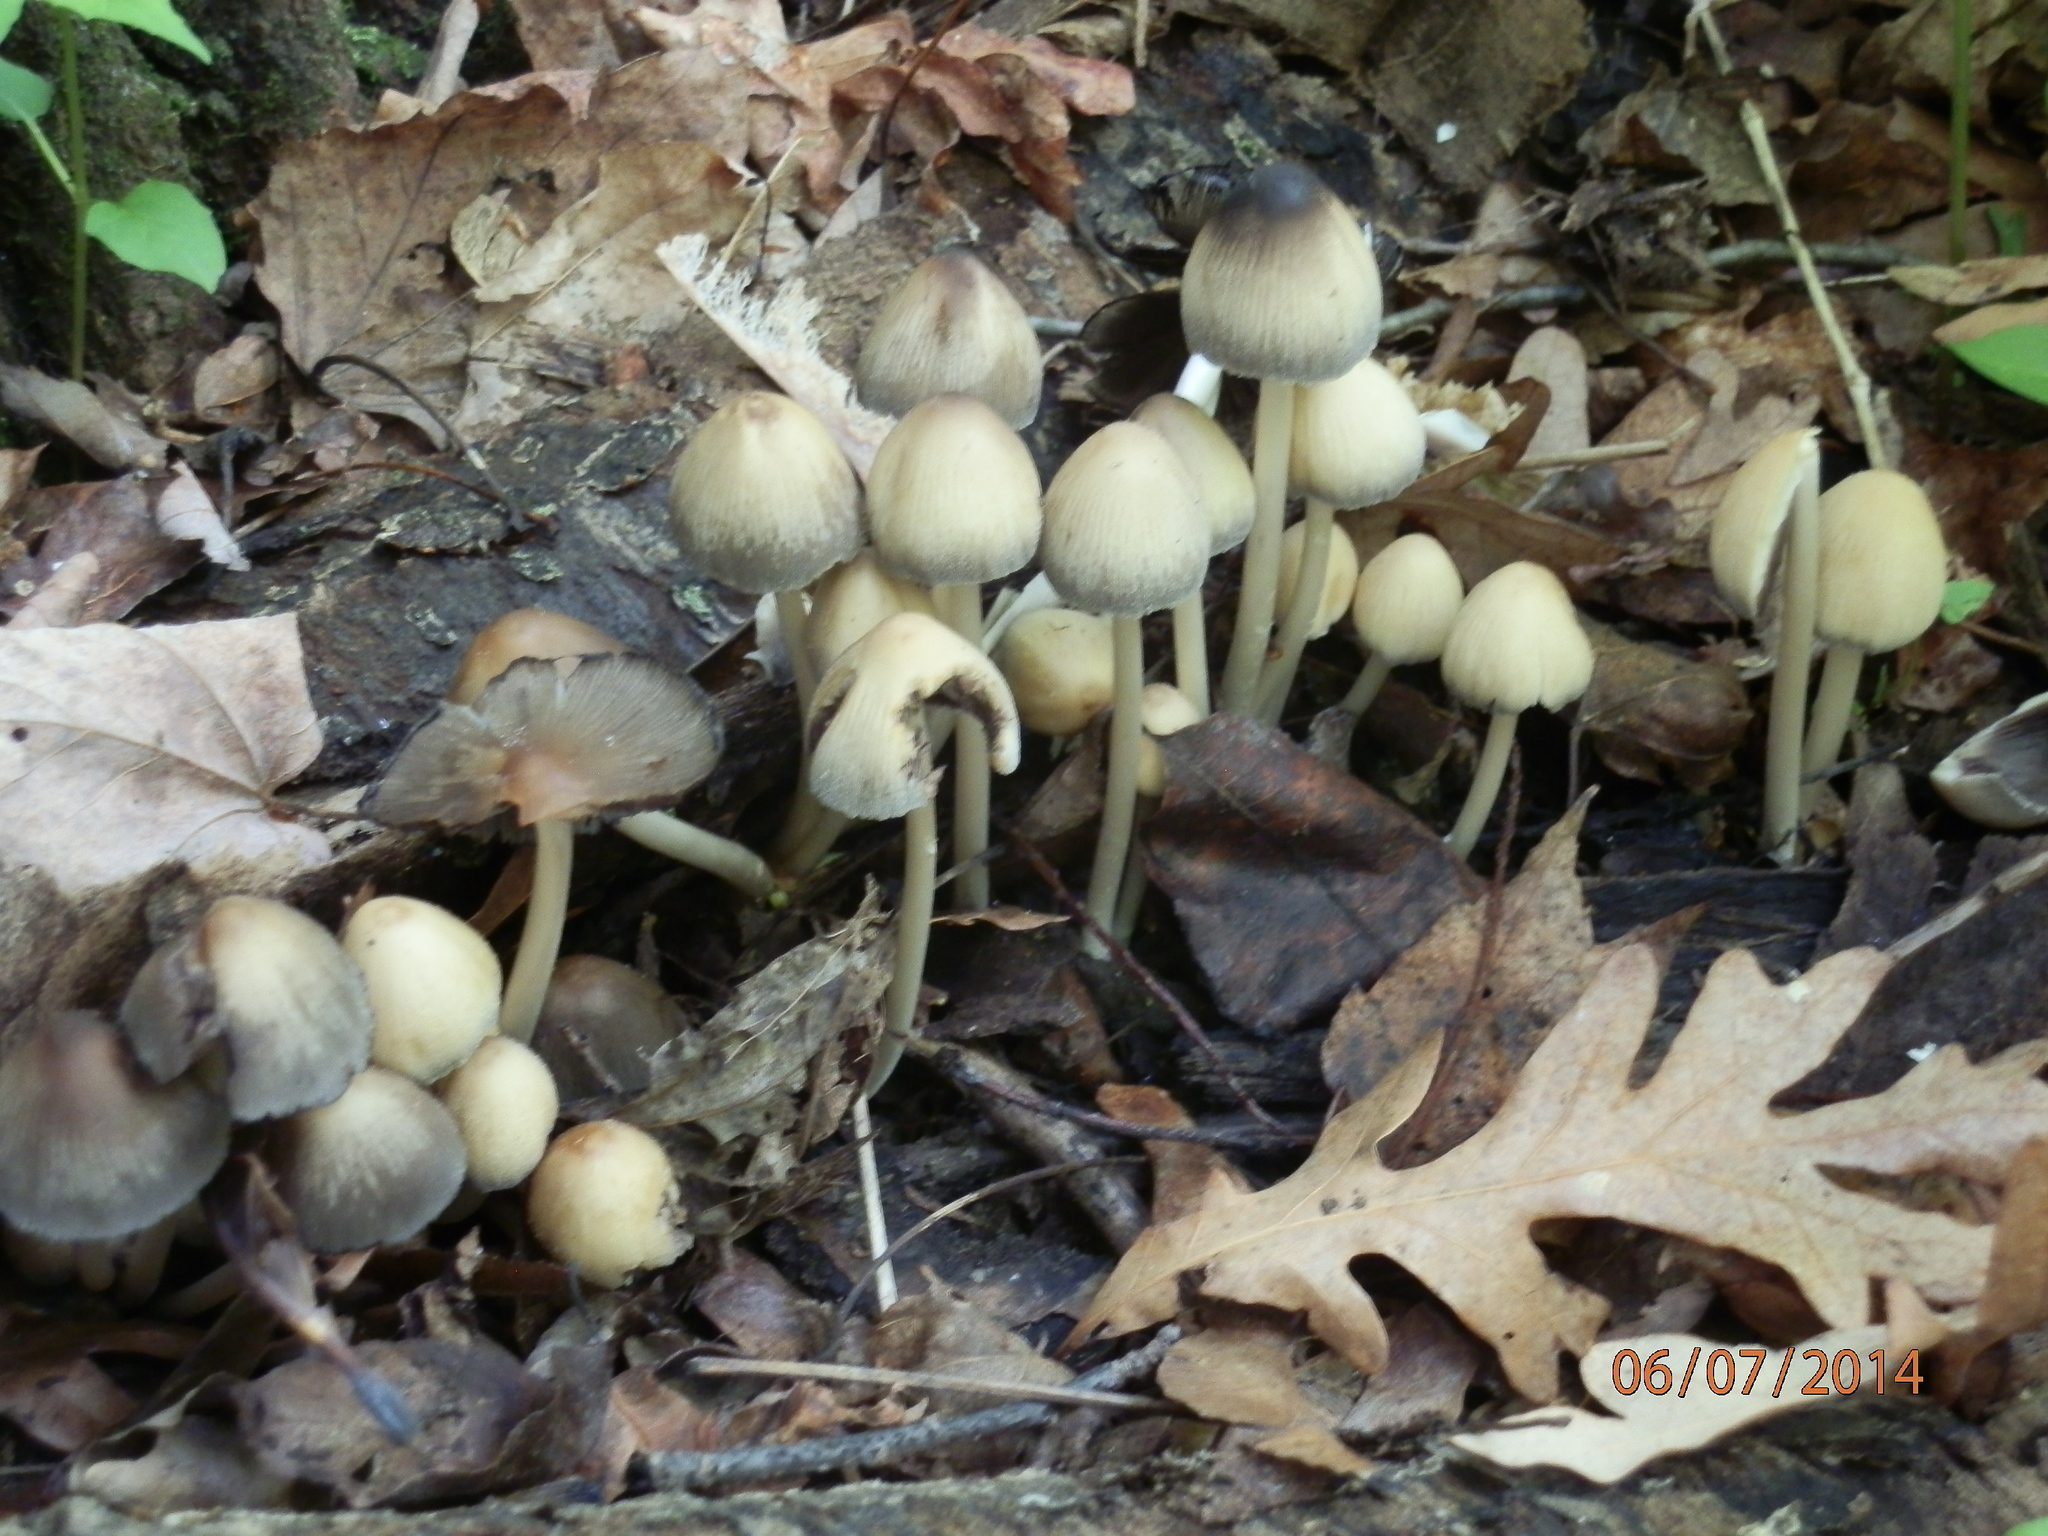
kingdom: Fungi
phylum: Basidiomycota
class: Agaricomycetes
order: Agaricales
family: Psathyrellaceae
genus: Coprinellus
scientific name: Coprinellus micaceus
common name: Glistening ink-cap
